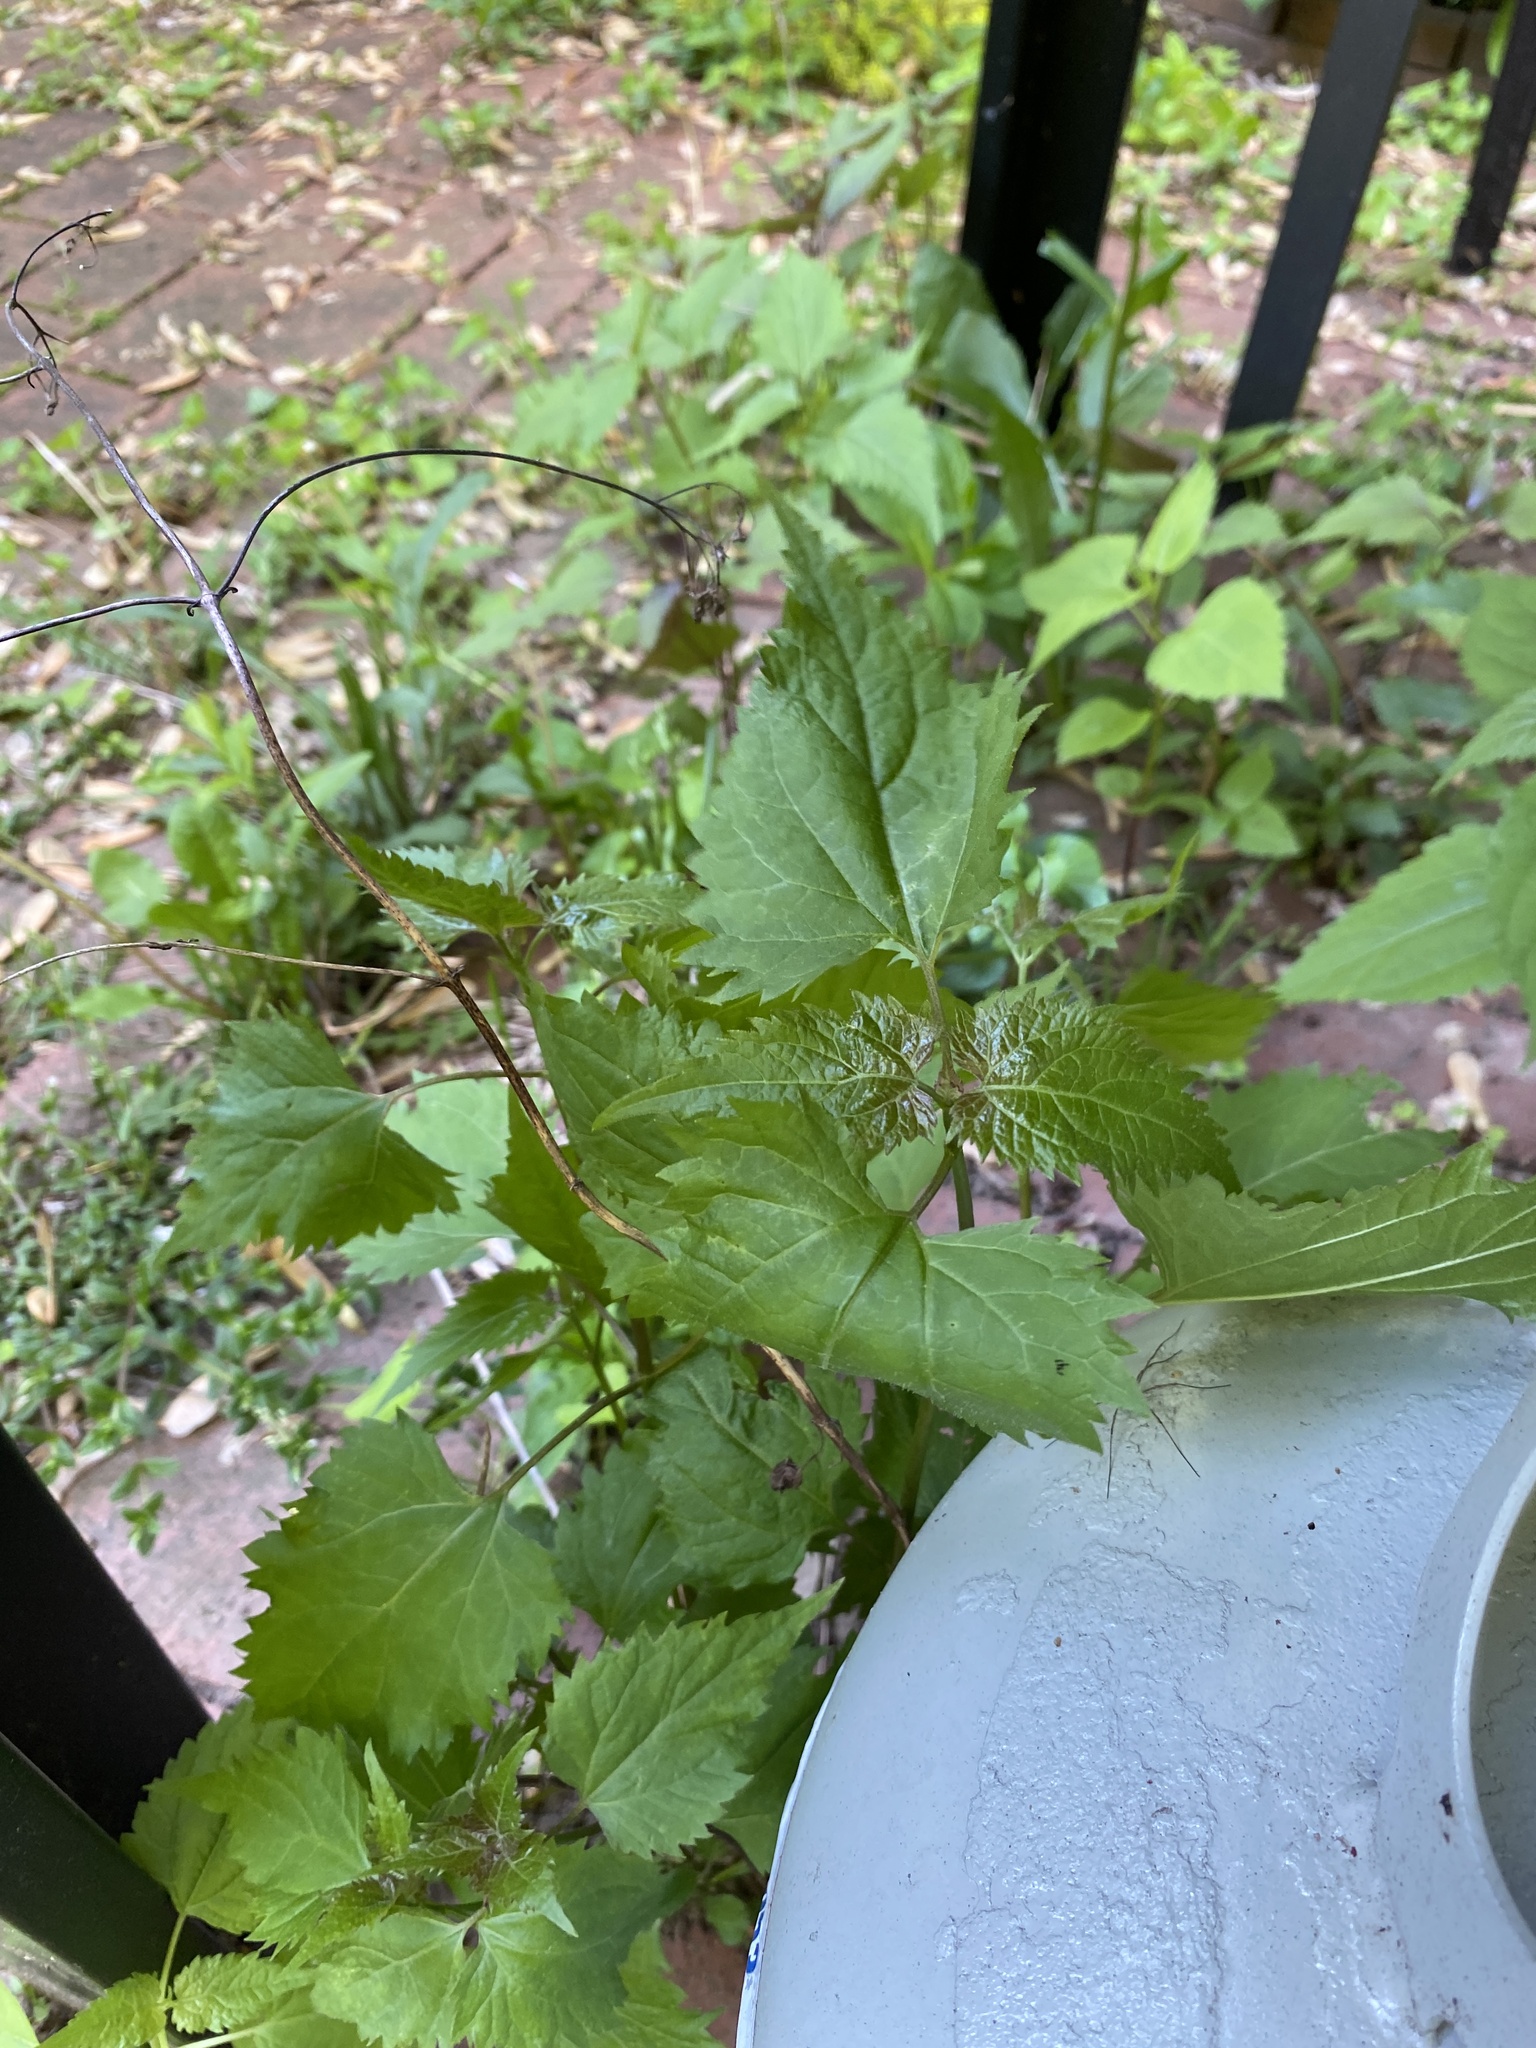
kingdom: Plantae
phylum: Tracheophyta
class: Magnoliopsida
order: Asterales
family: Asteraceae
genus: Ageratina
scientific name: Ageratina altissima
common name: White snakeroot
